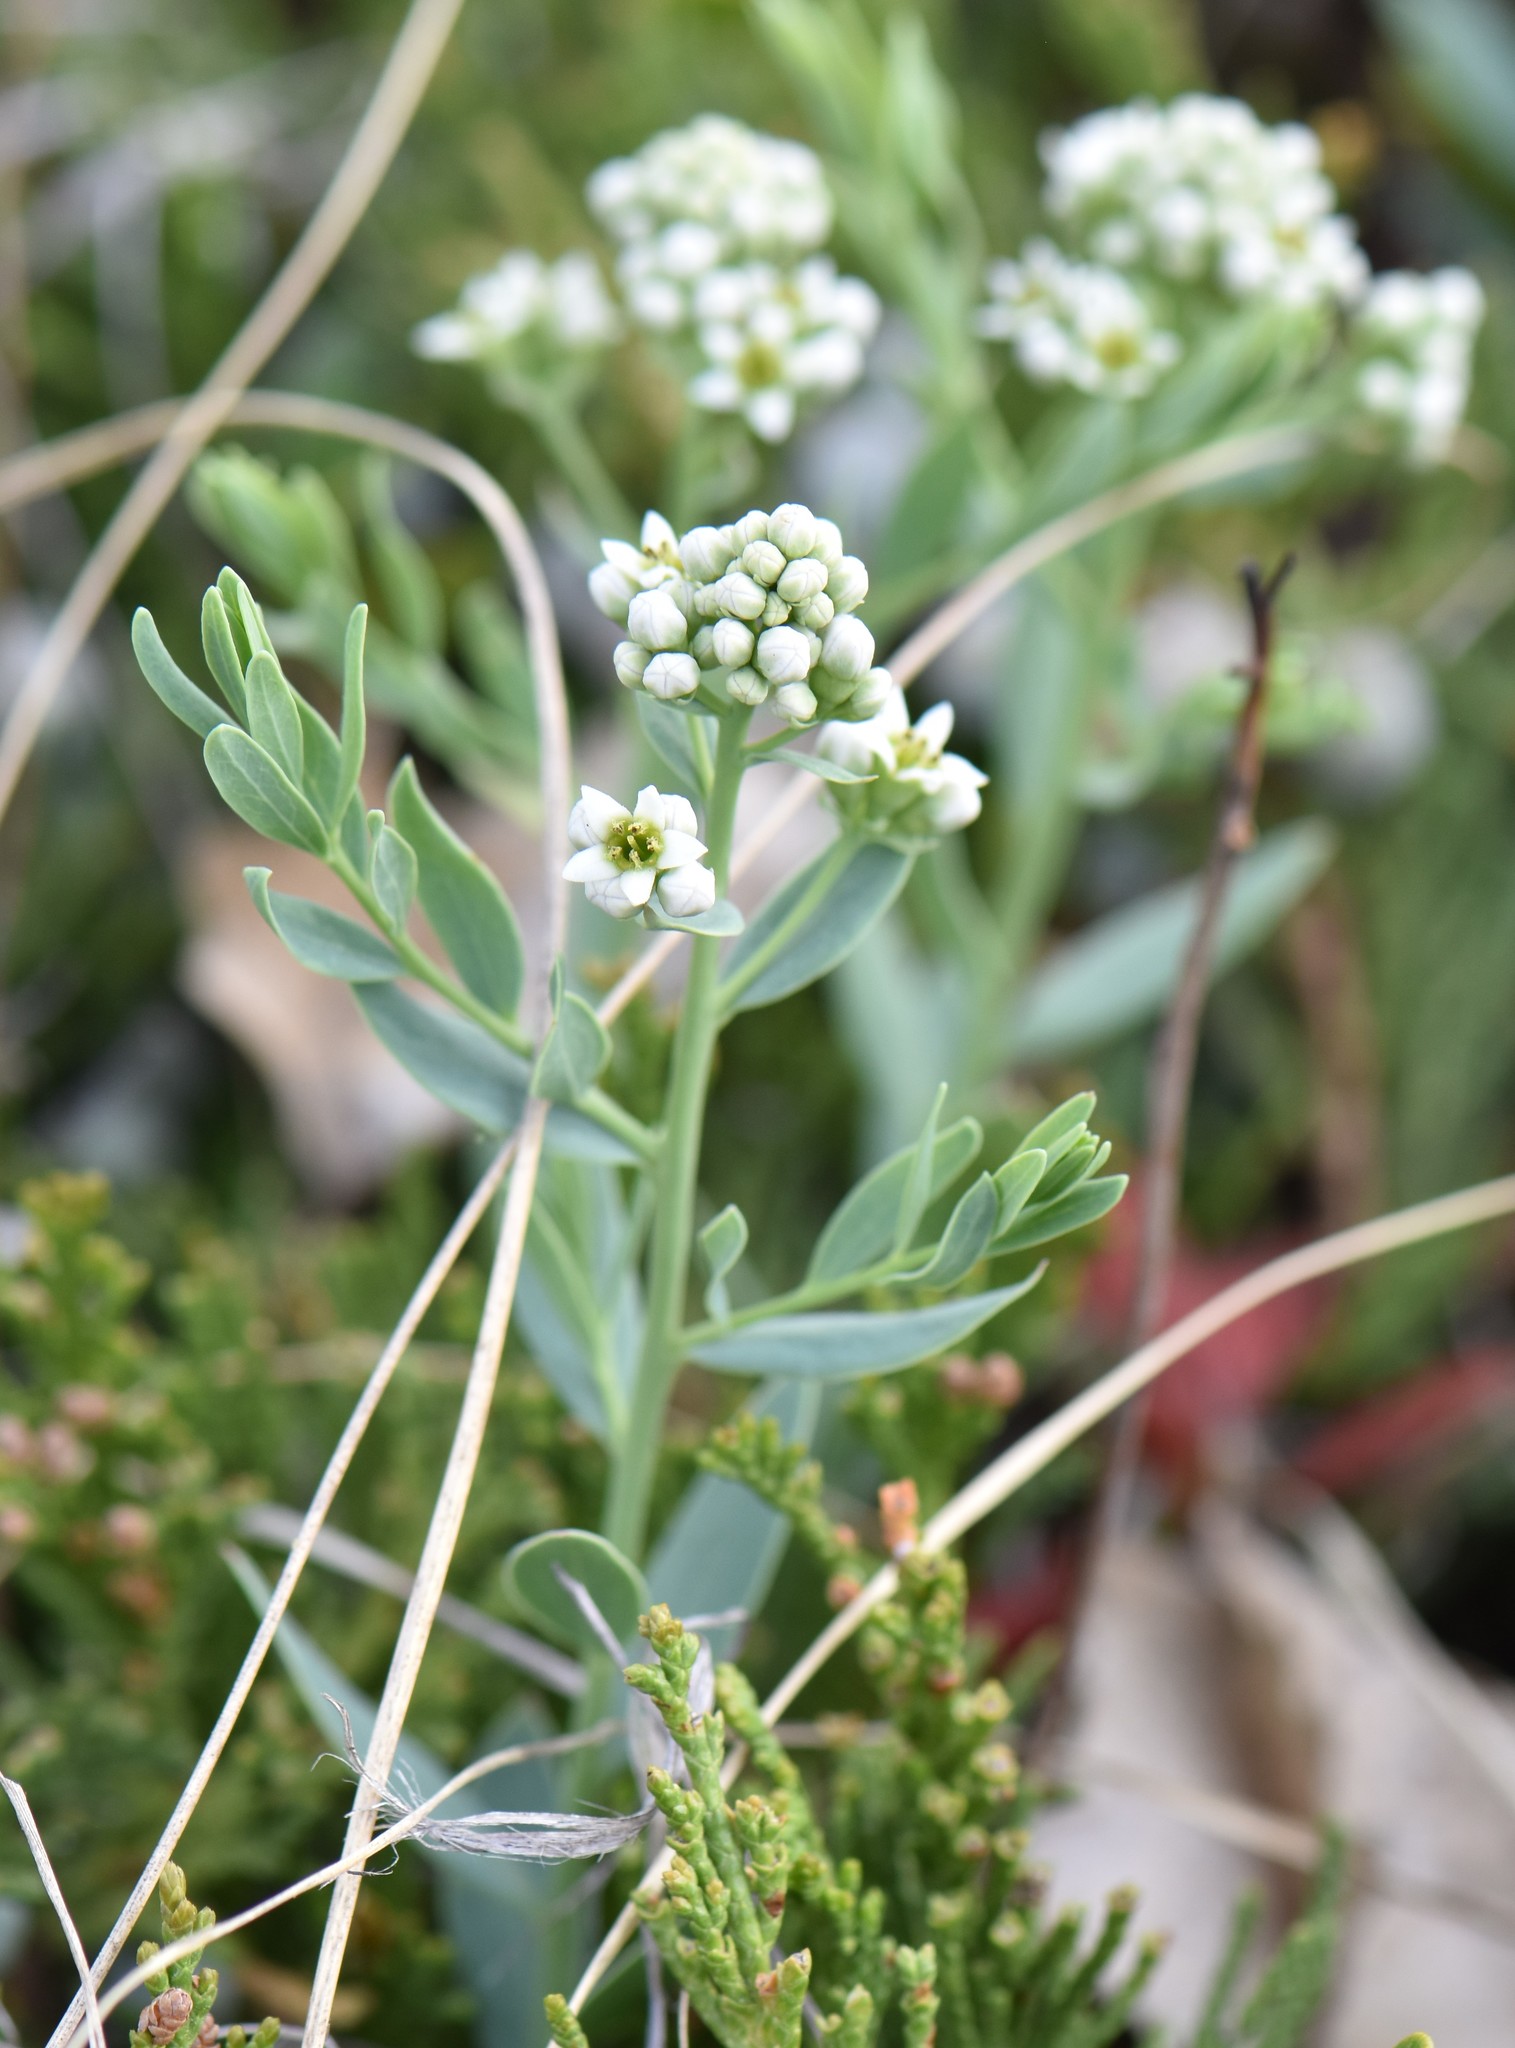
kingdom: Plantae
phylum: Tracheophyta
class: Magnoliopsida
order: Santalales
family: Comandraceae
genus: Comandra
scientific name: Comandra umbellata
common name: Bastard toadflax
